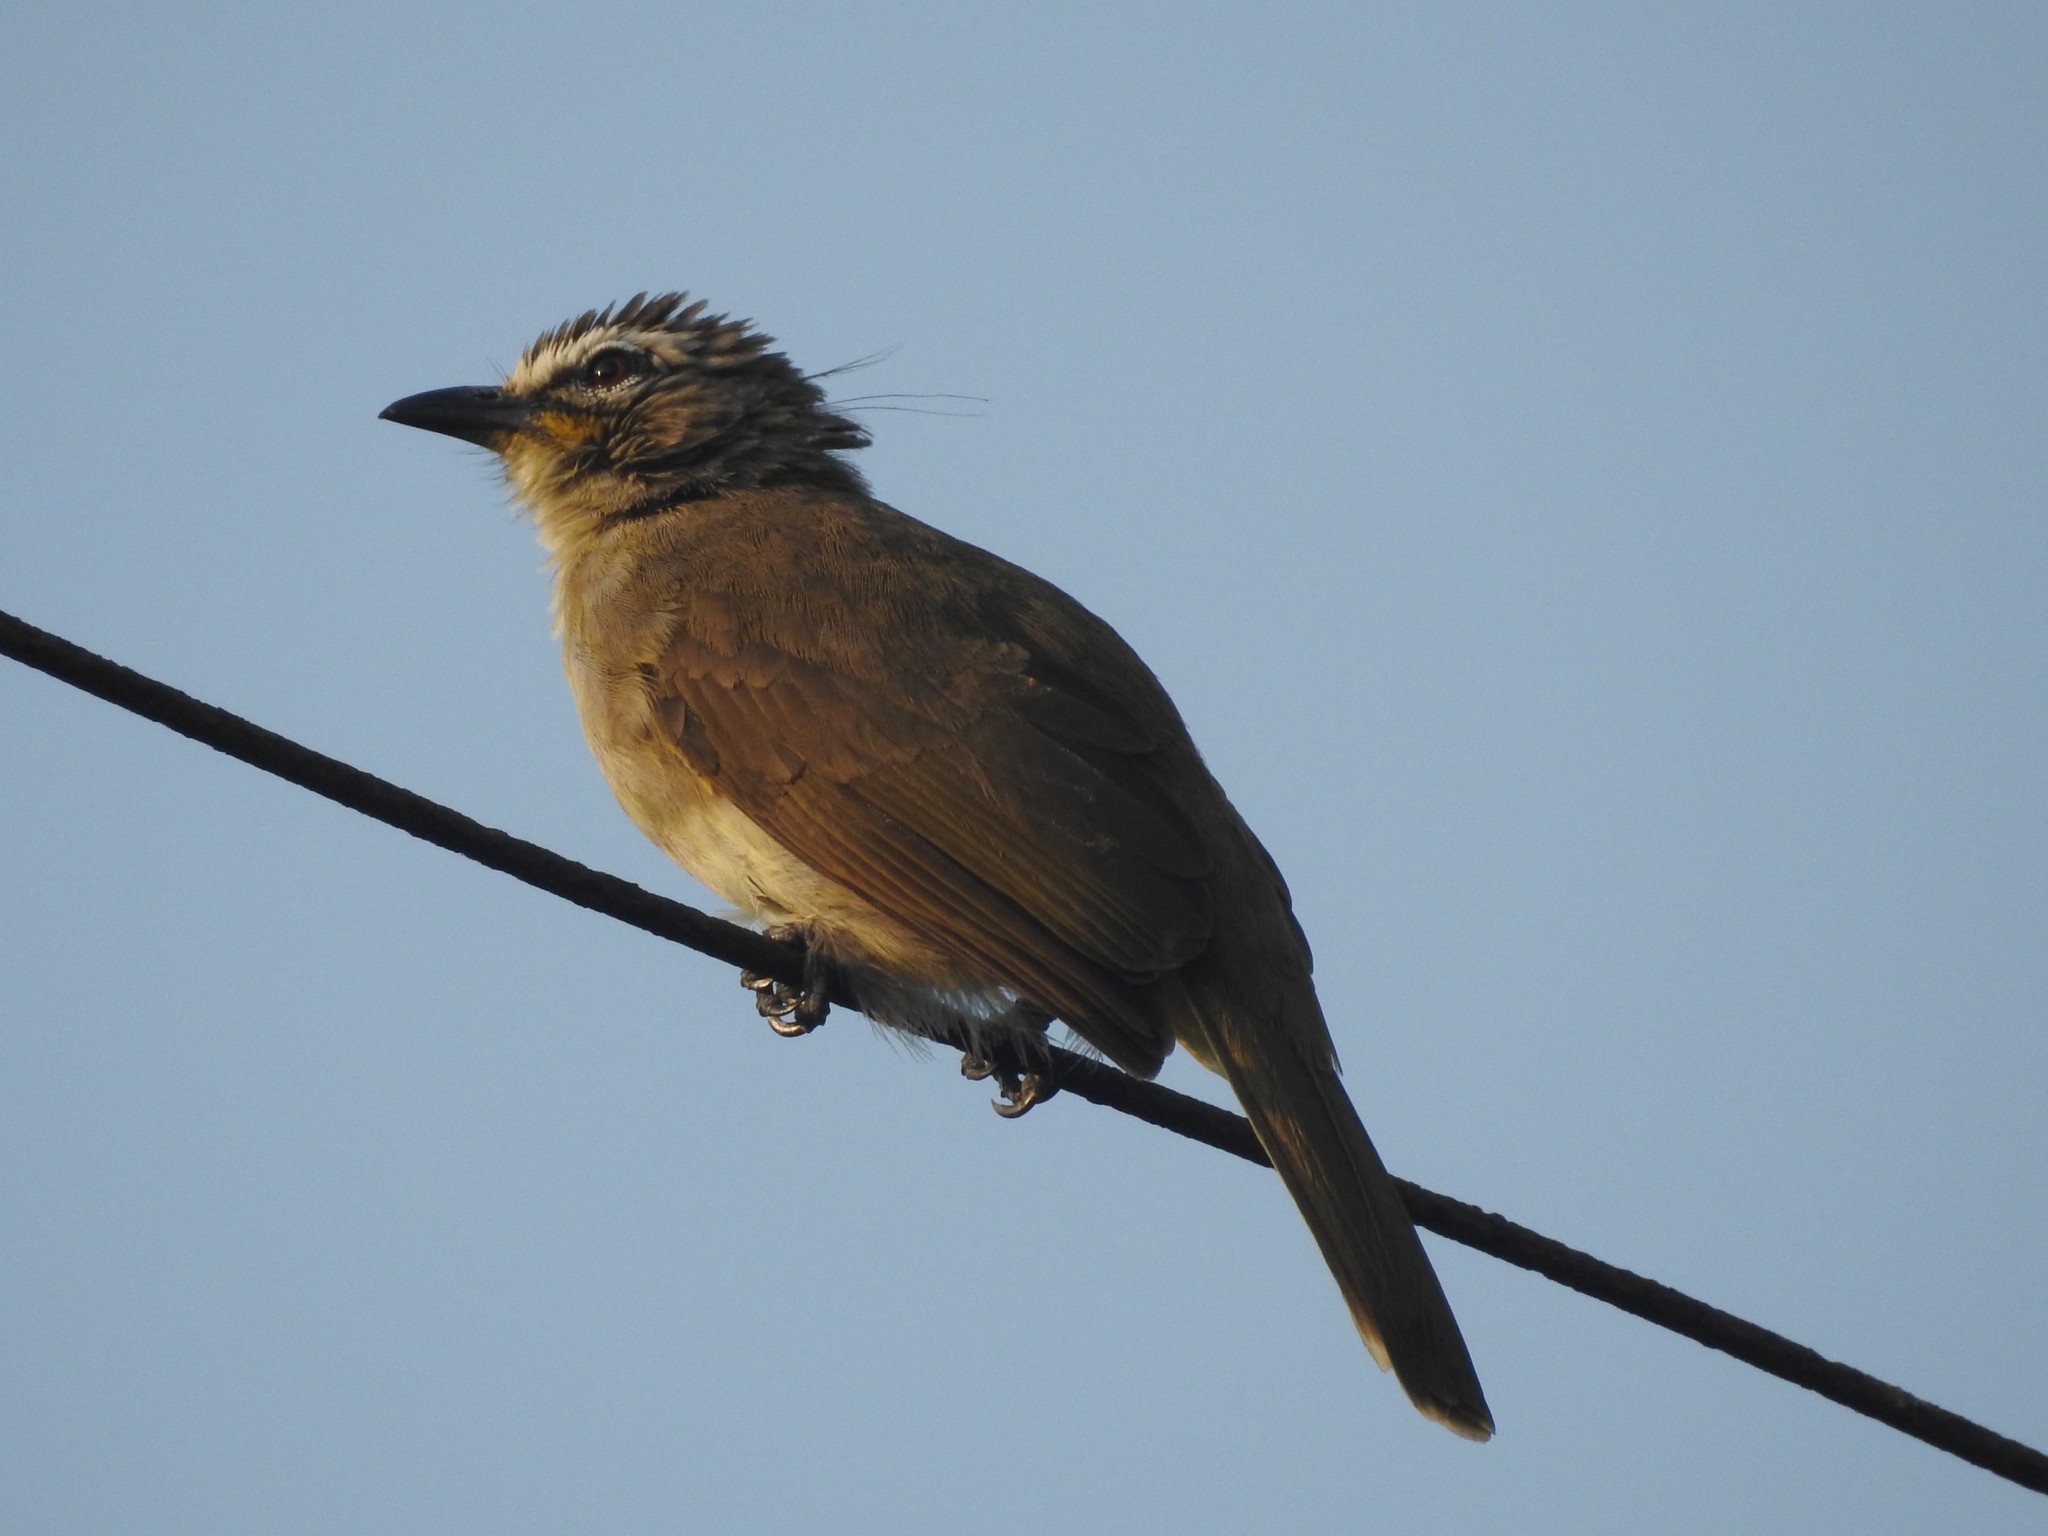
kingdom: Animalia
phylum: Chordata
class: Aves
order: Passeriformes
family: Pycnonotidae
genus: Pycnonotus
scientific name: Pycnonotus luteolus
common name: White-browed bulbul
